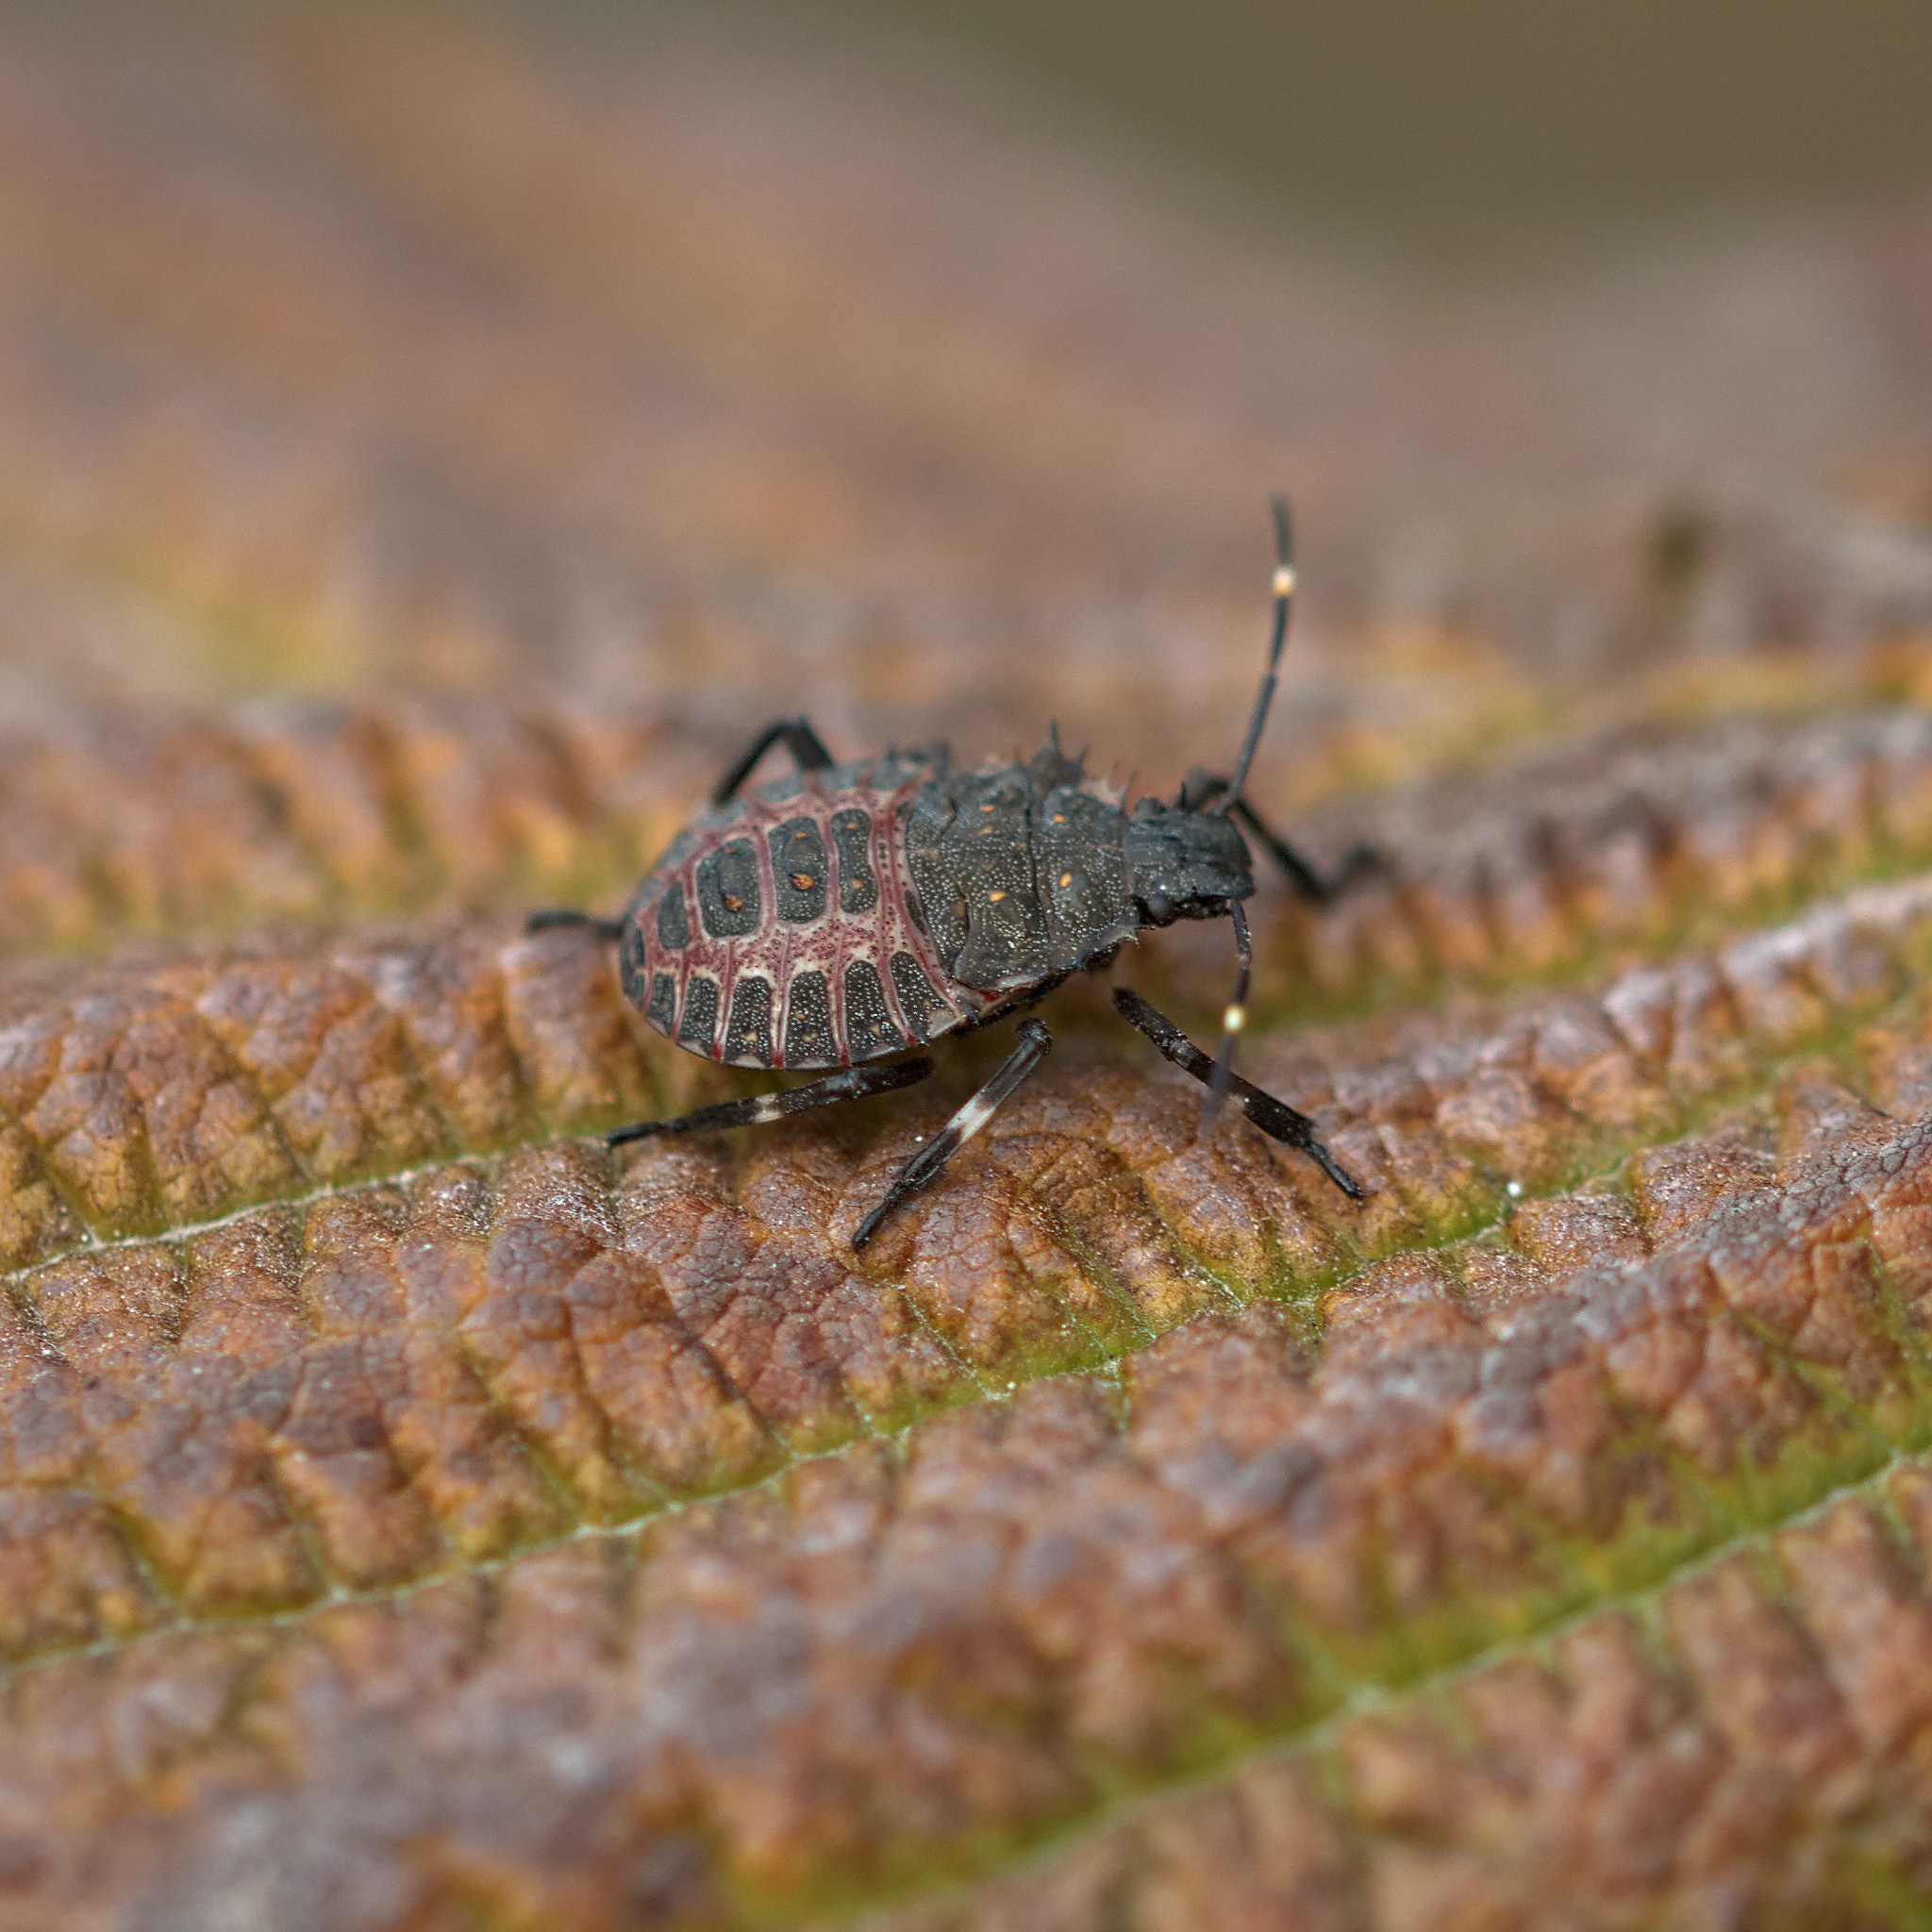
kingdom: Animalia
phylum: Arthropoda
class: Insecta
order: Hemiptera
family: Pentatomidae
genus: Halyomorpha
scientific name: Halyomorpha halys
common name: Brown marmorated stink bug
